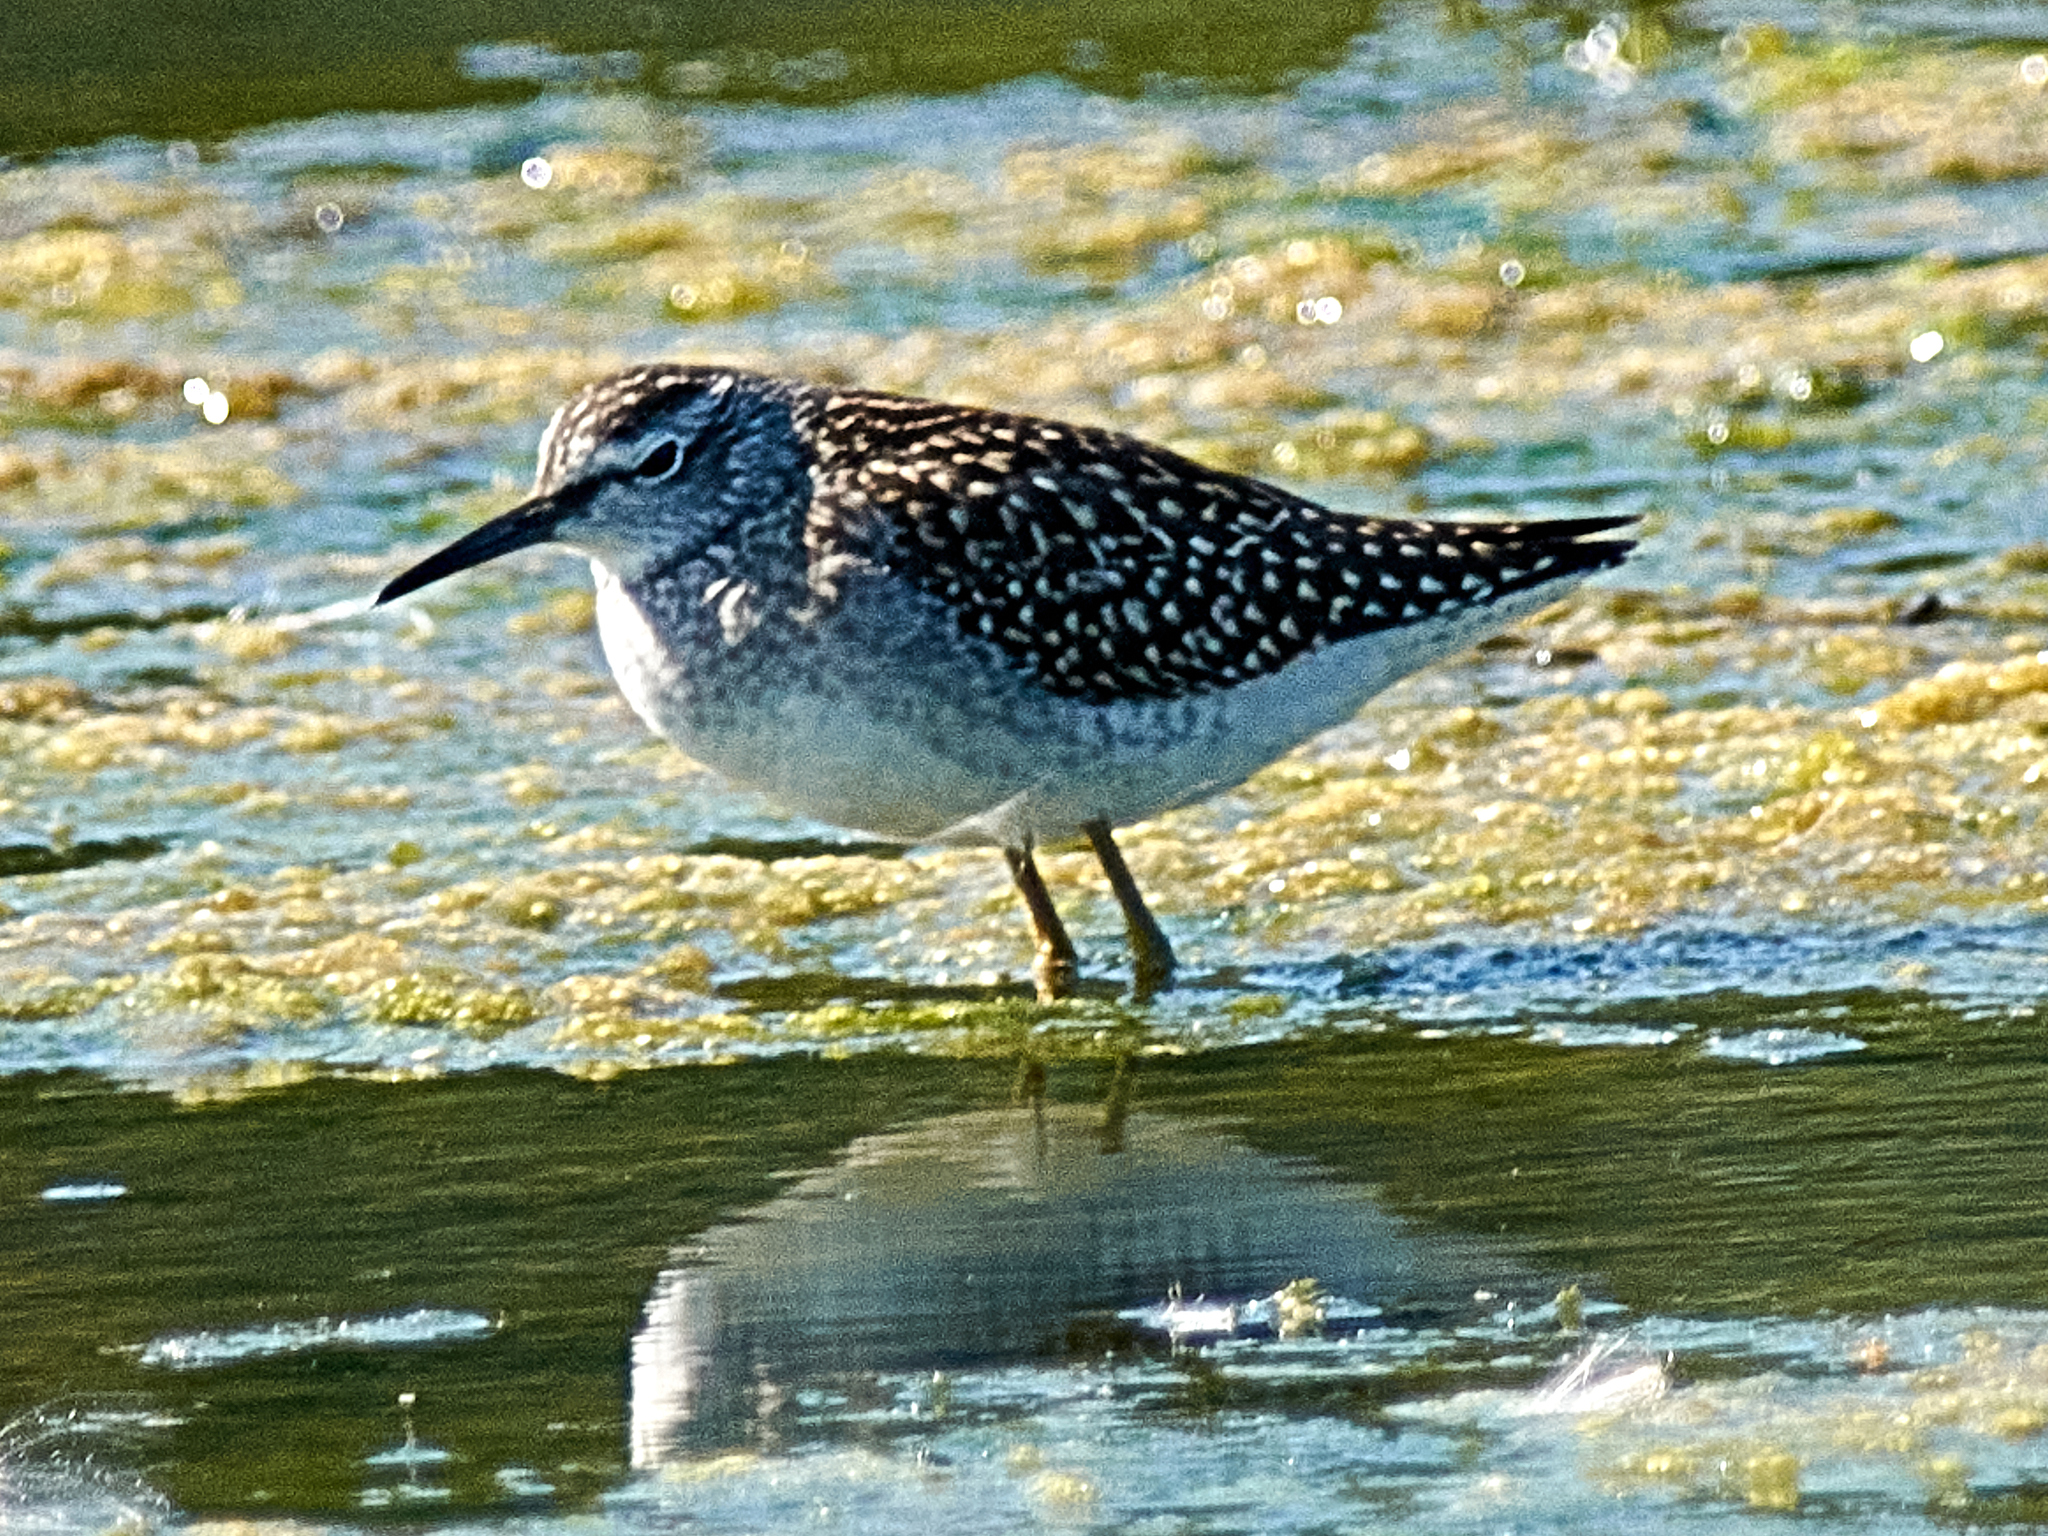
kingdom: Animalia
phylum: Chordata
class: Aves
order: Charadriiformes
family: Scolopacidae
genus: Tringa
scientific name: Tringa glareola
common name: Wood sandpiper
